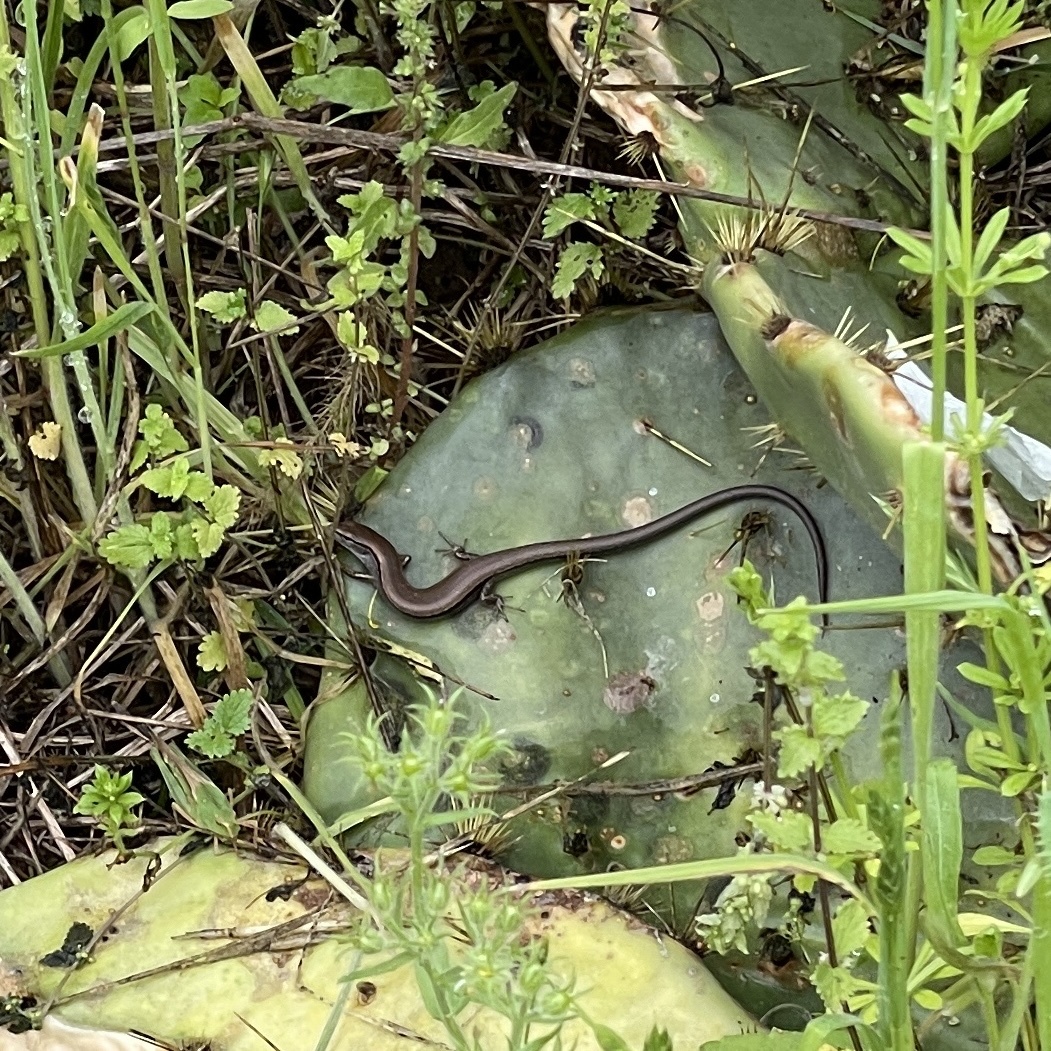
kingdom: Animalia
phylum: Chordata
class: Squamata
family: Scincidae
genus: Scincella
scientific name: Scincella lateralis
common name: Ground skink
